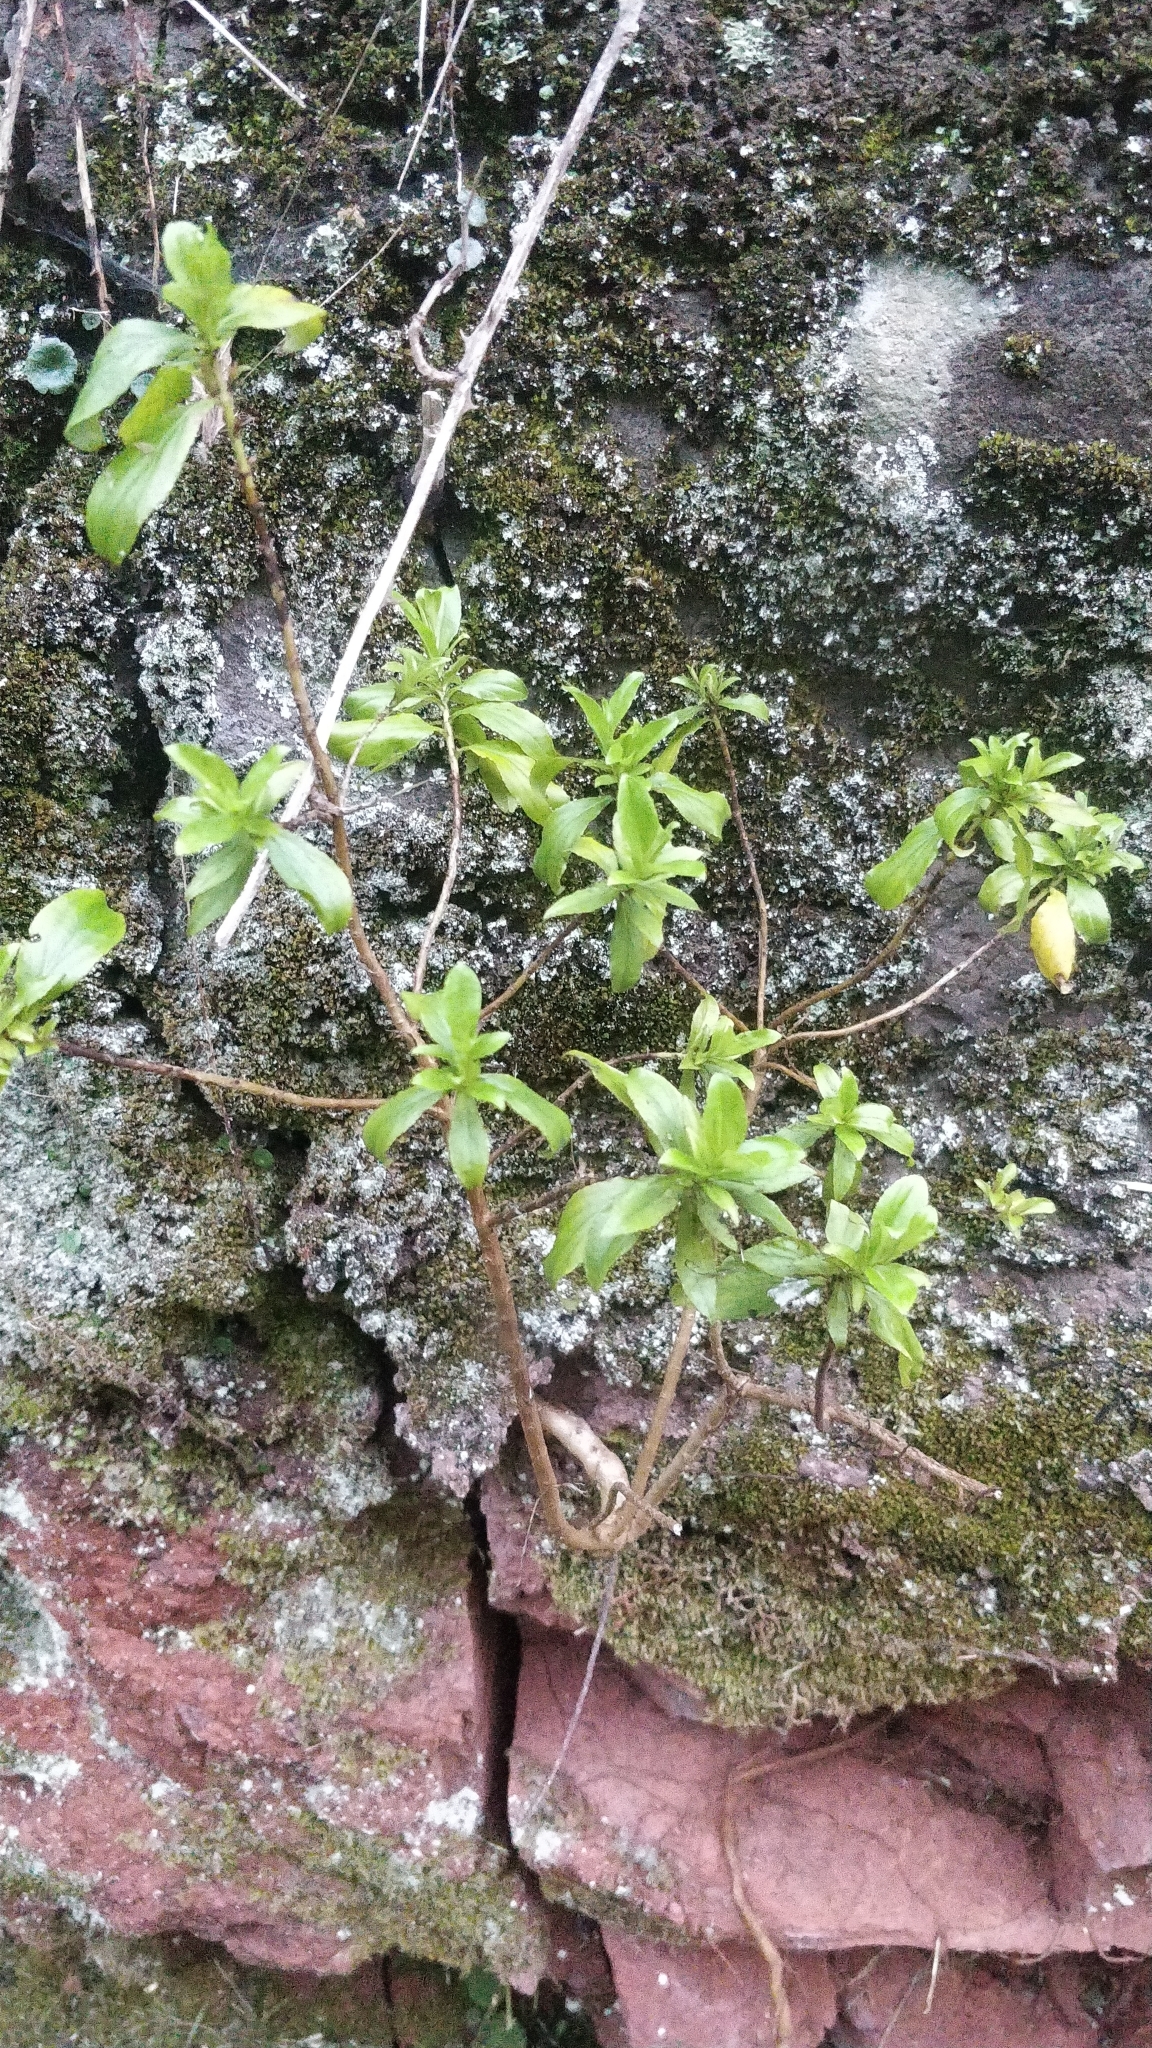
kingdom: Plantae
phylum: Tracheophyta
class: Magnoliopsida
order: Malpighiales
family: Hypericaceae
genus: Hypericum
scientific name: Hypericum glandulosum
